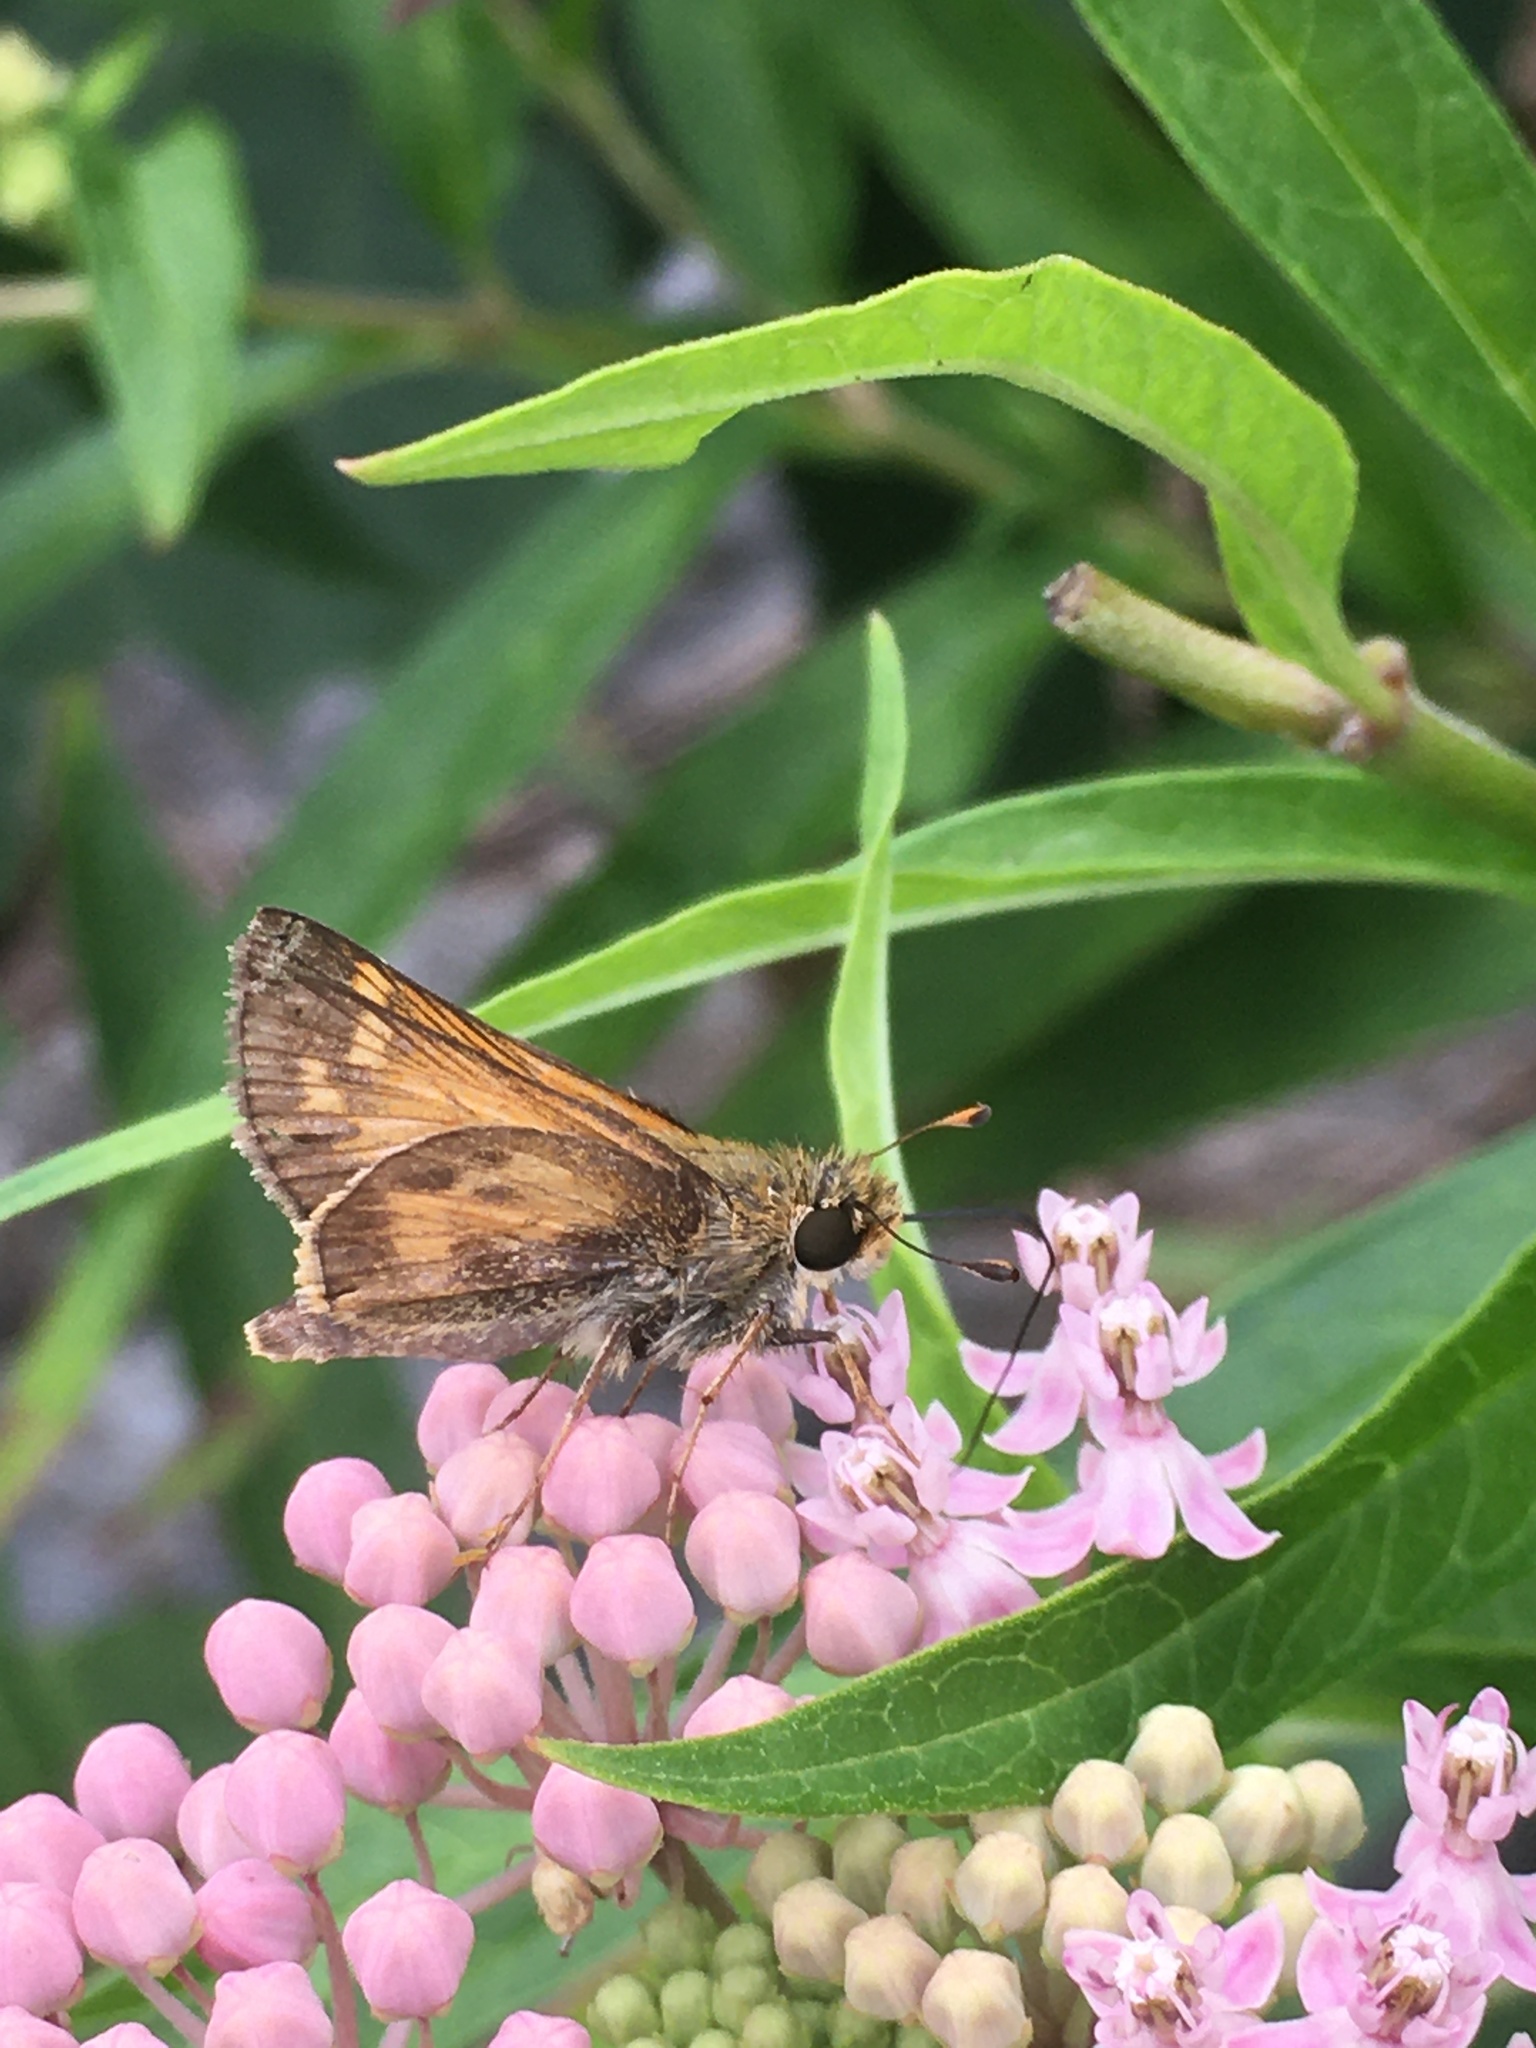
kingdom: Animalia
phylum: Arthropoda
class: Insecta
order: Lepidoptera
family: Hesperiidae
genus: Atalopedes
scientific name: Atalopedes
